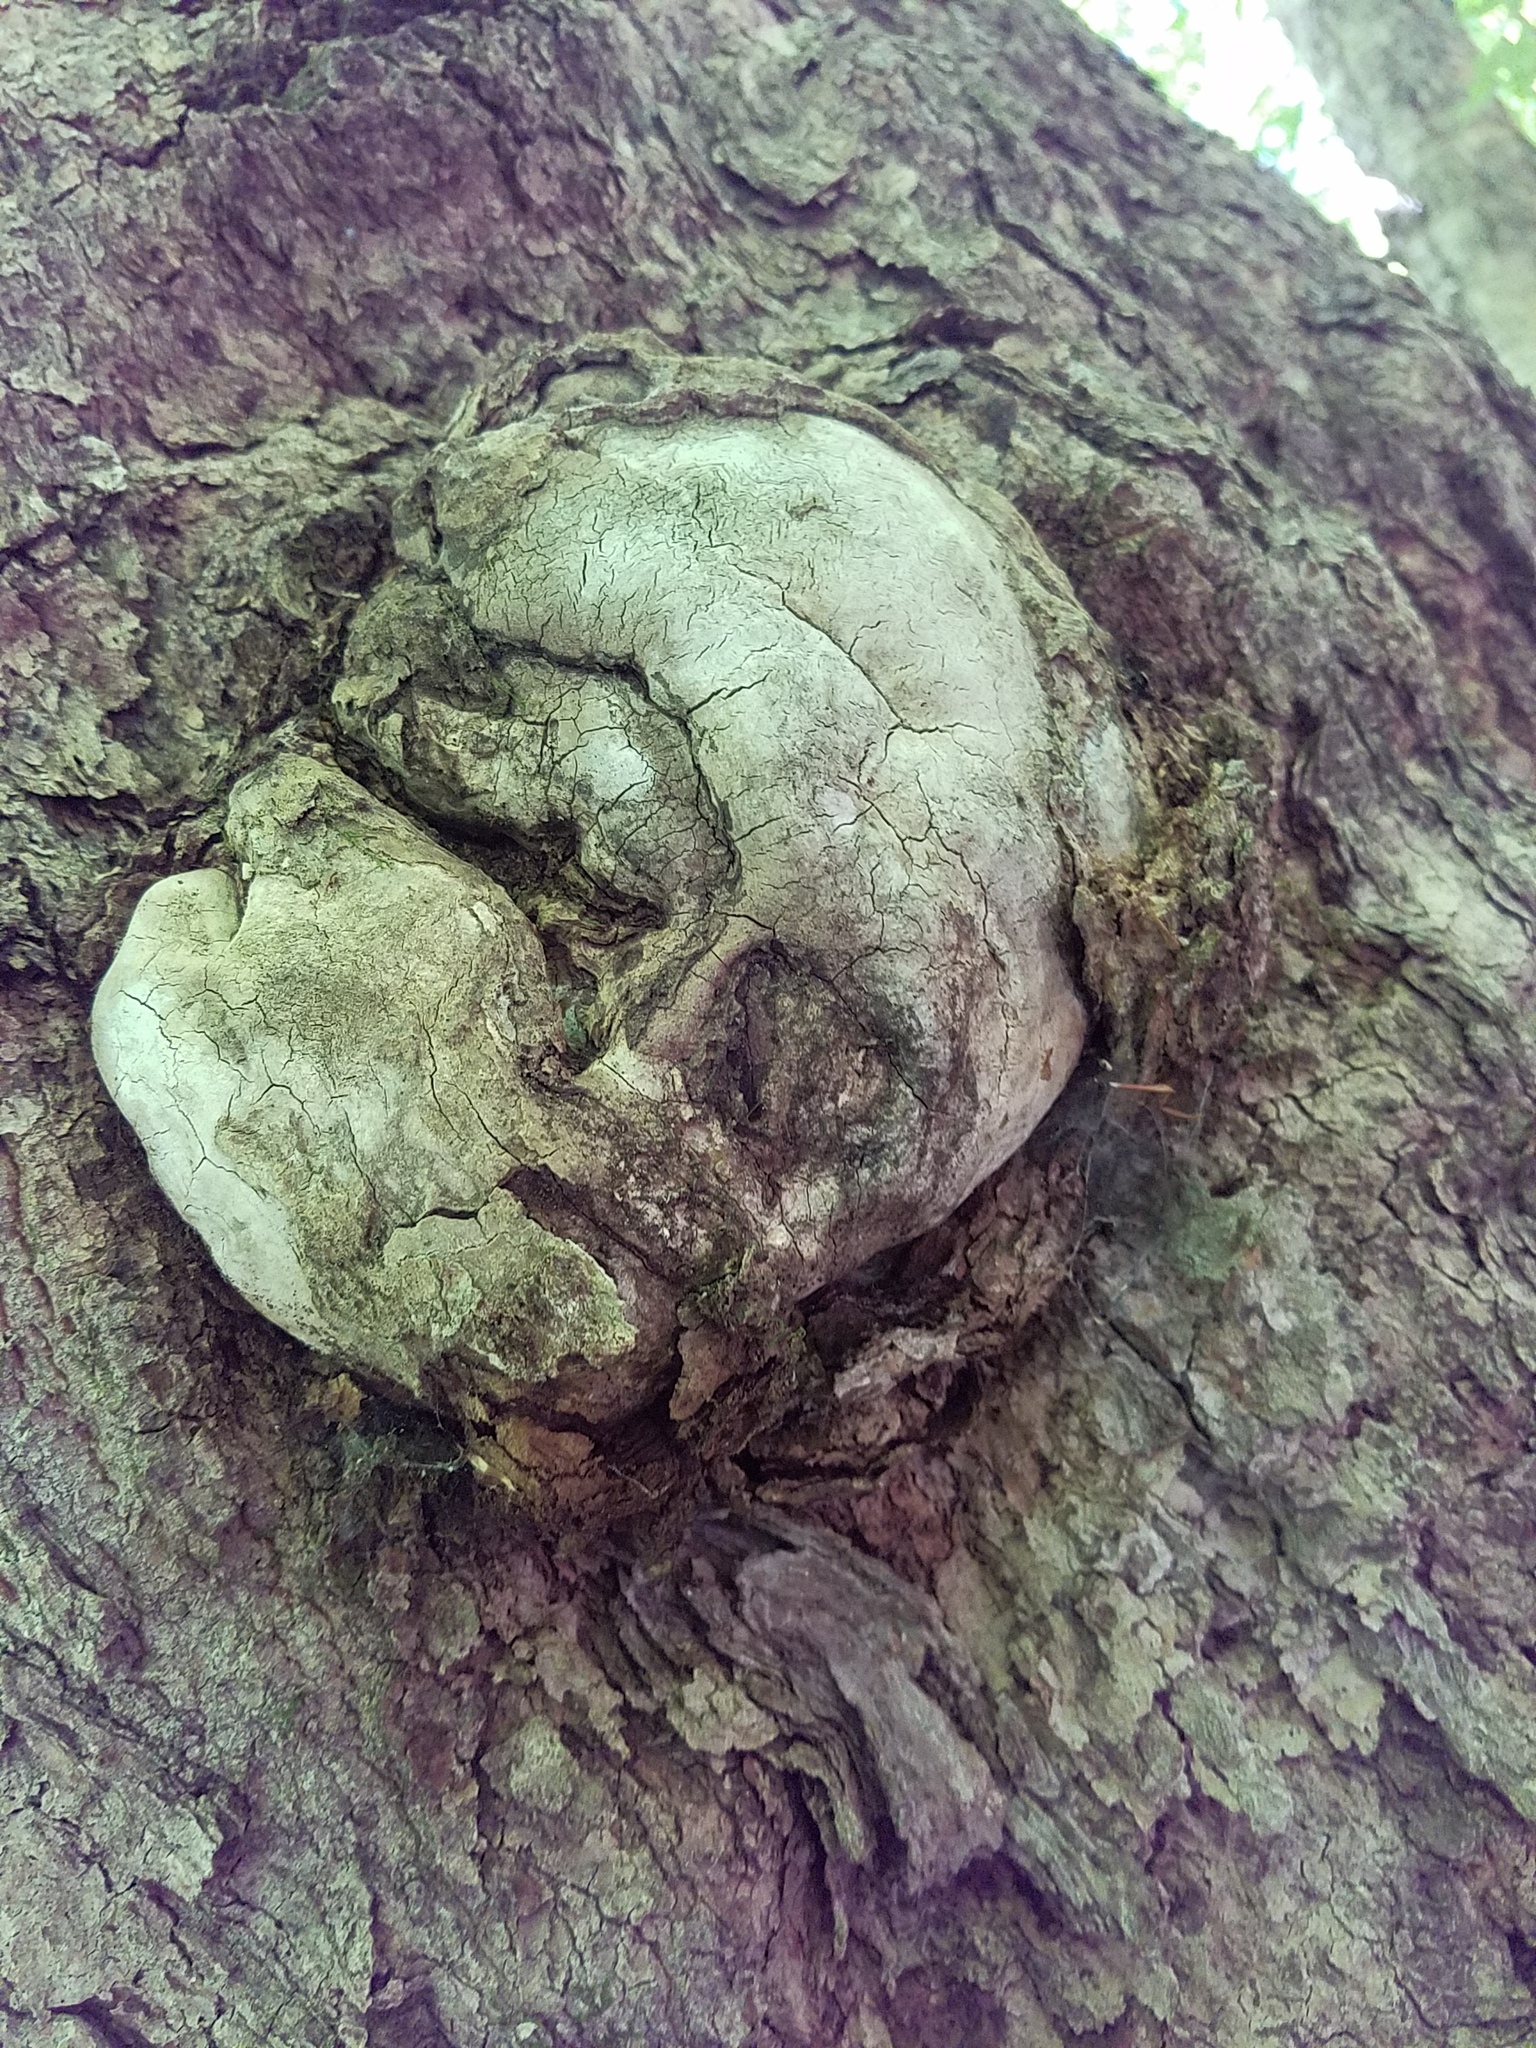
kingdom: Plantae
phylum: Tracheophyta
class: Magnoliopsida
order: Sapindales
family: Sapindaceae
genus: Acer
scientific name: Acer saccharum
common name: Sugar maple
